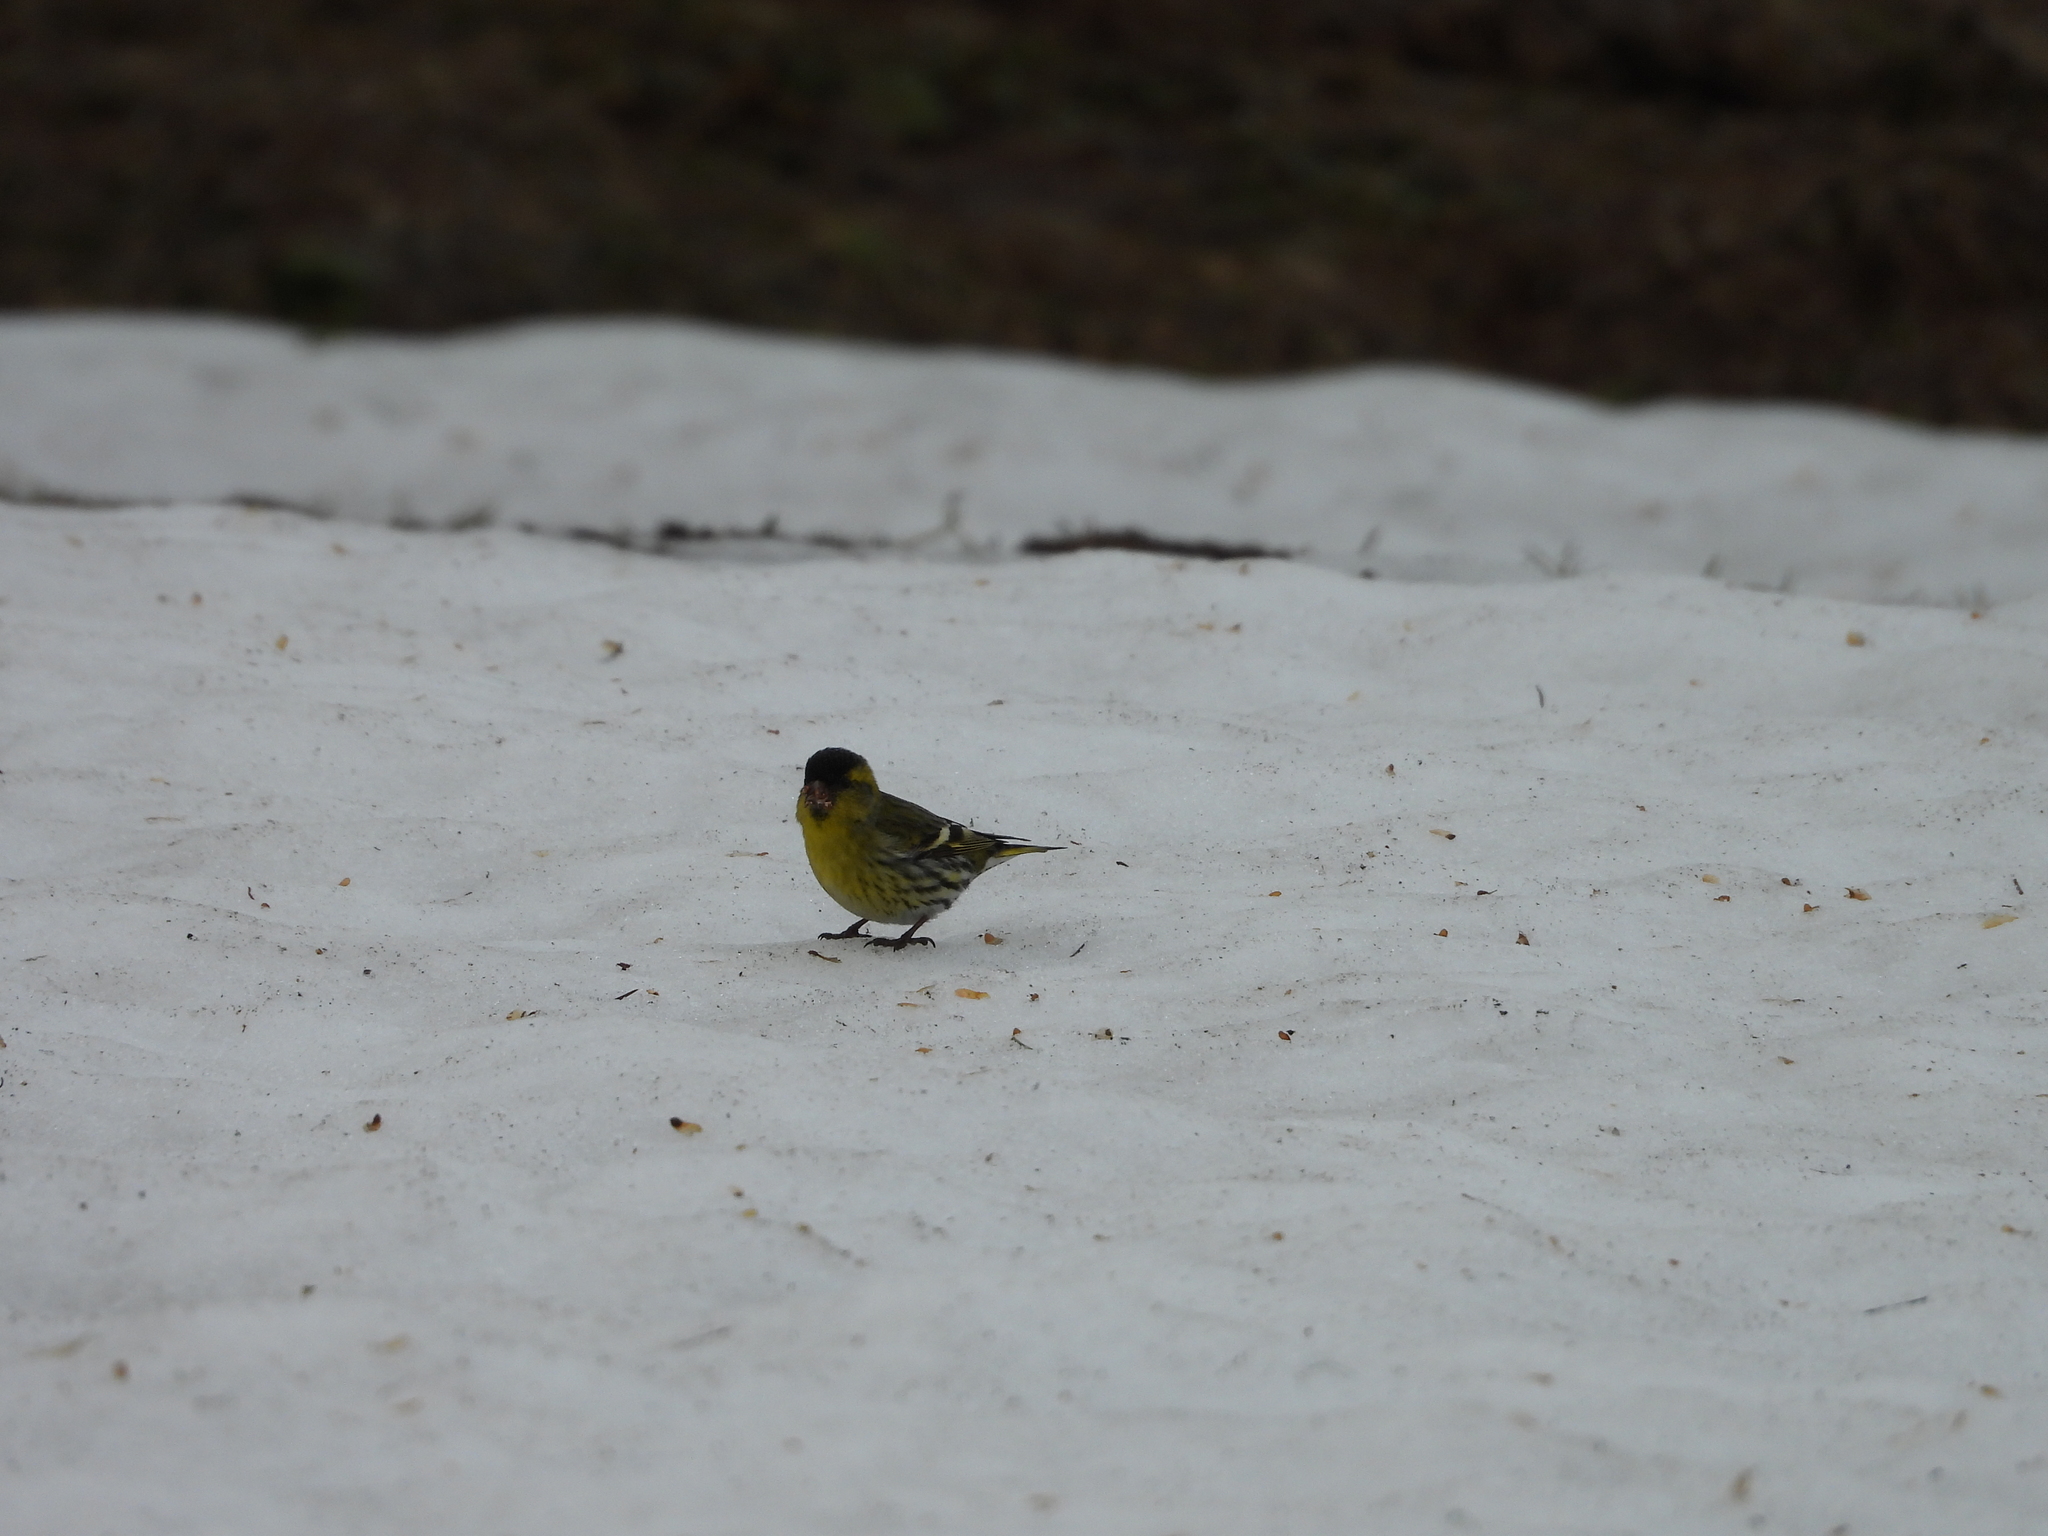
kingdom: Animalia
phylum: Chordata
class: Aves
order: Passeriformes
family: Fringillidae
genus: Spinus
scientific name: Spinus spinus
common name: Eurasian siskin
